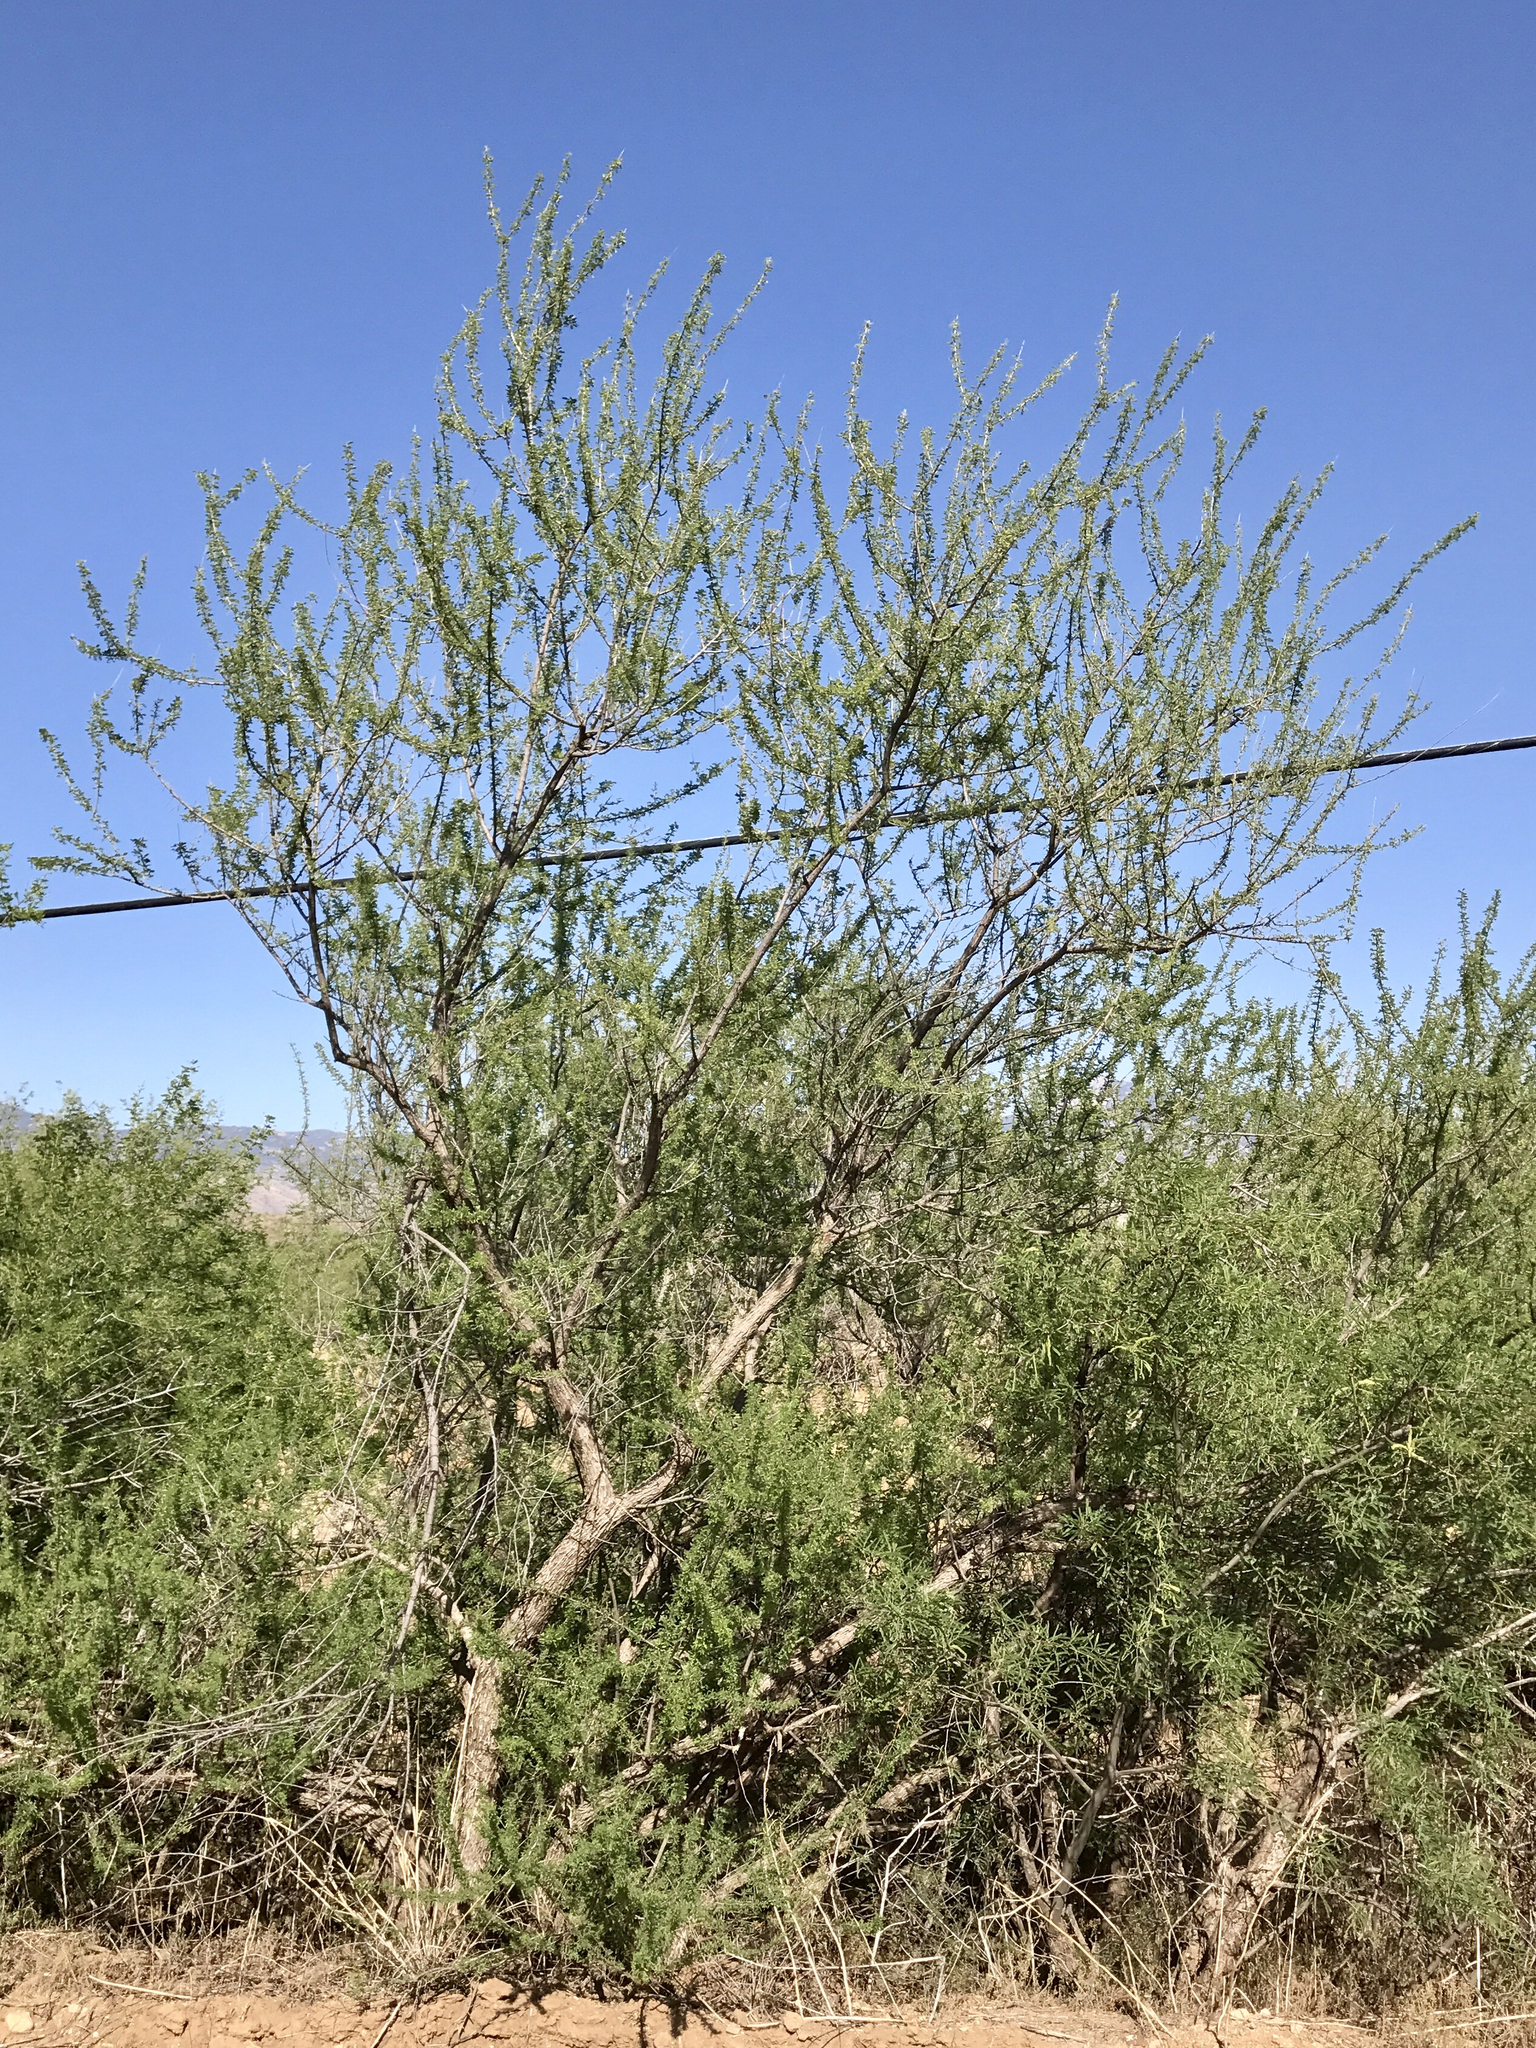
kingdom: Plantae
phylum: Tracheophyta
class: Magnoliopsida
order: Fabales
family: Fabaceae
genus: Senegalia
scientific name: Senegalia greggii
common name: Texas-mimosa
